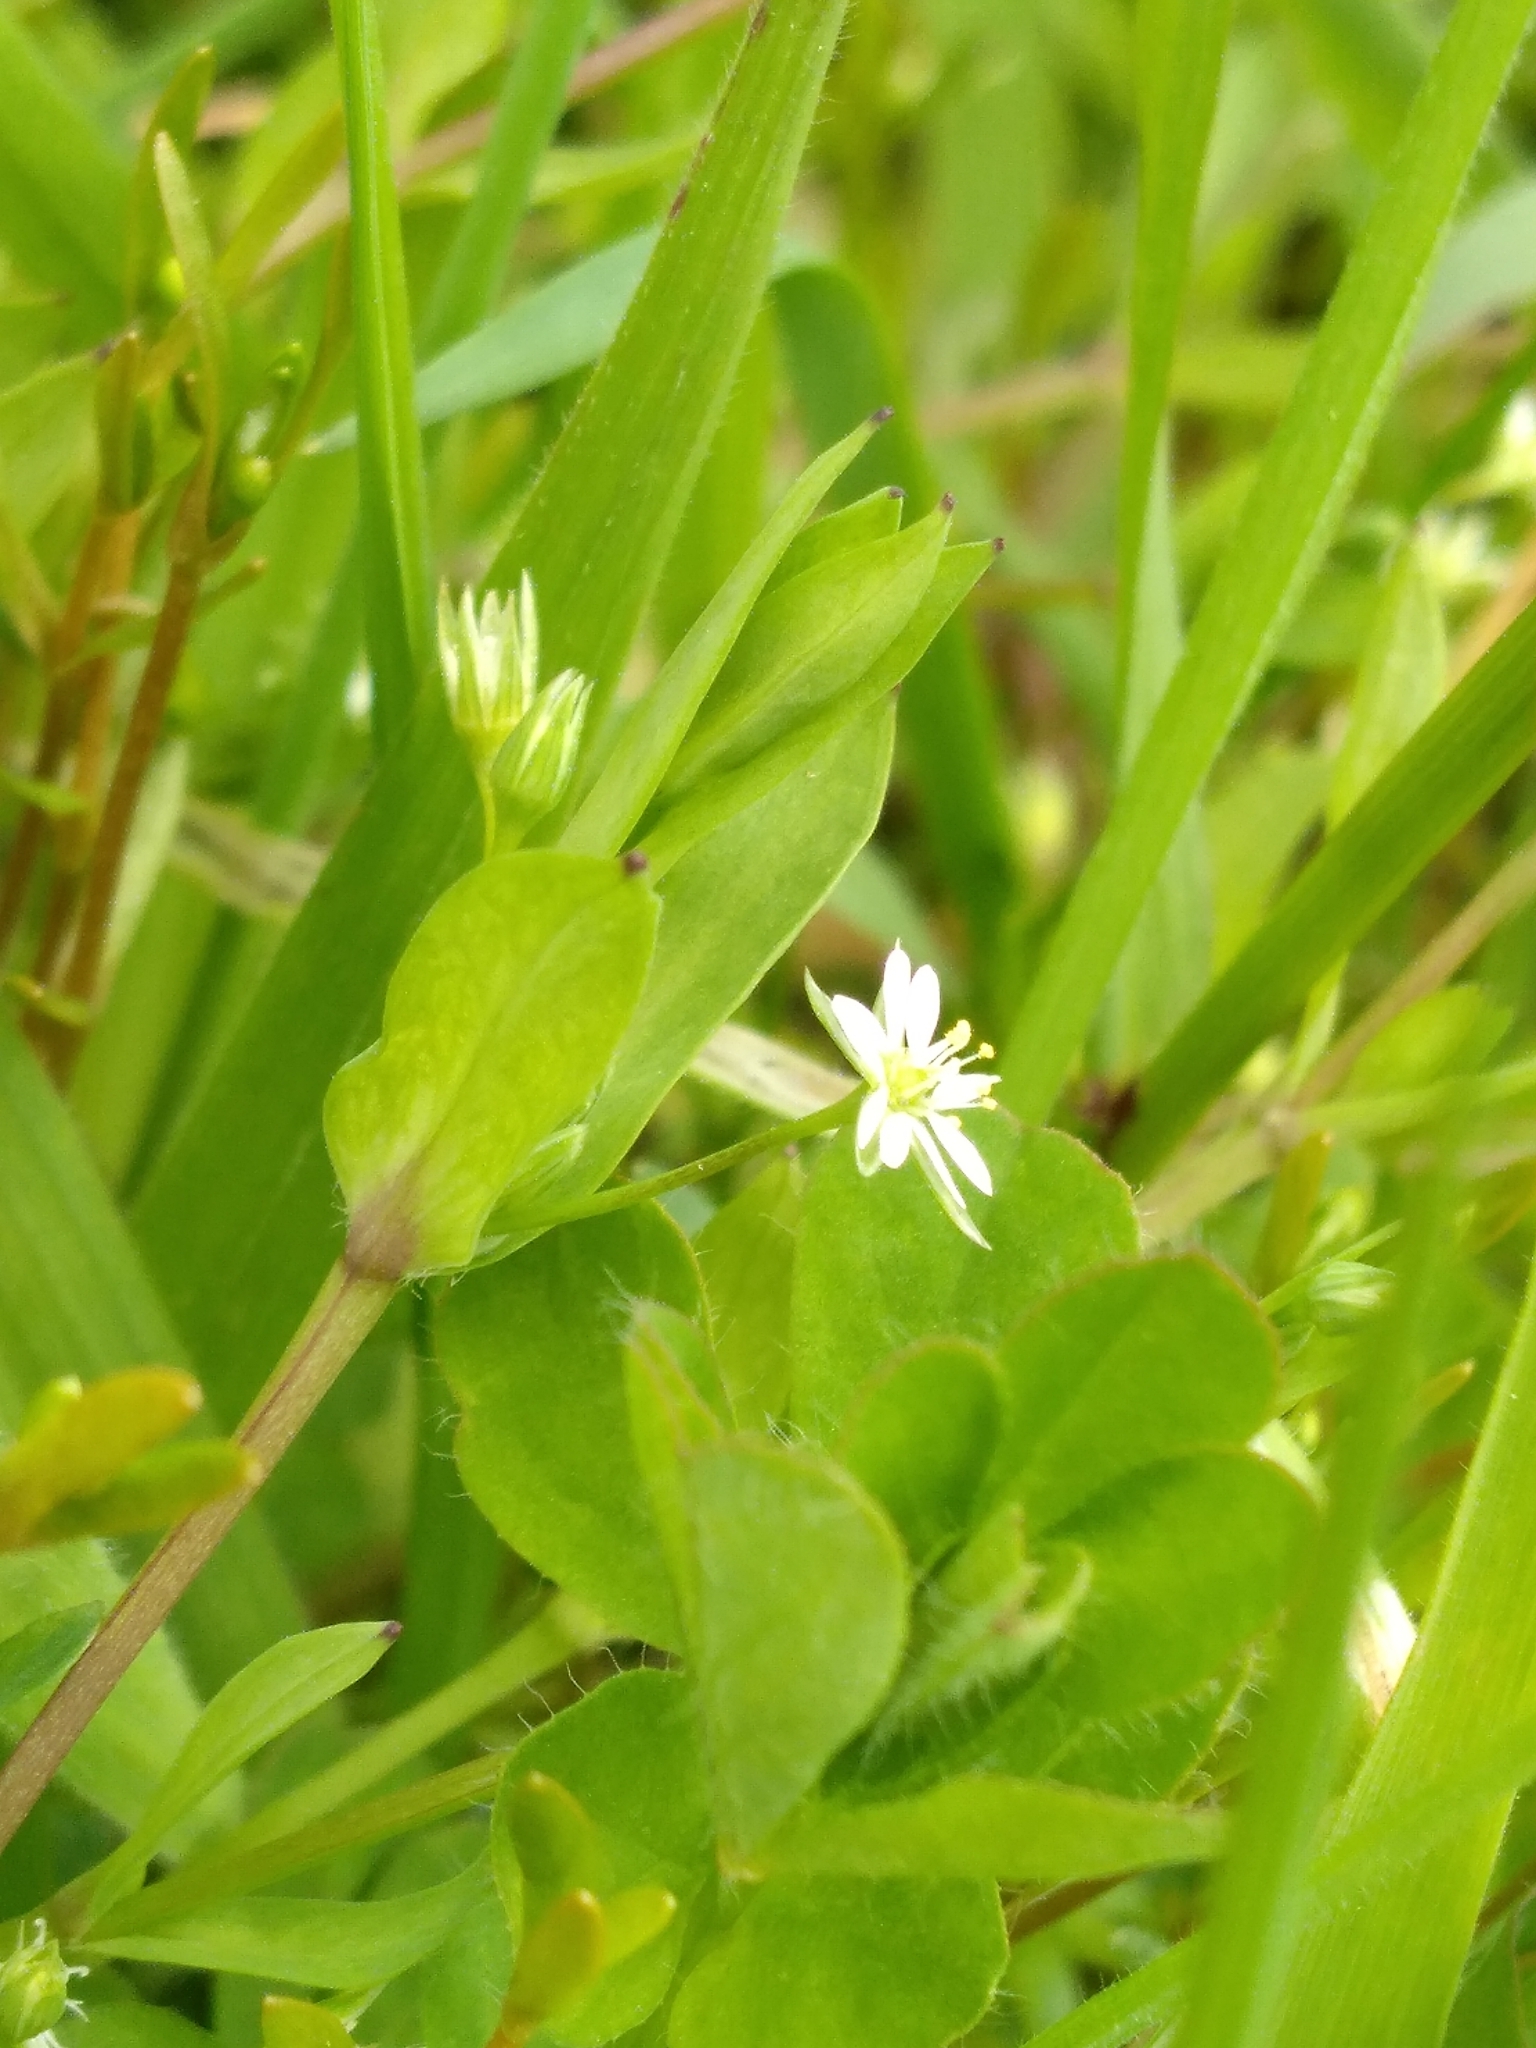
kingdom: Plantae
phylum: Tracheophyta
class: Magnoliopsida
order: Caryophyllales
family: Caryophyllaceae
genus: Stellaria
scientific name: Stellaria alsine
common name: Bog stitchwort
